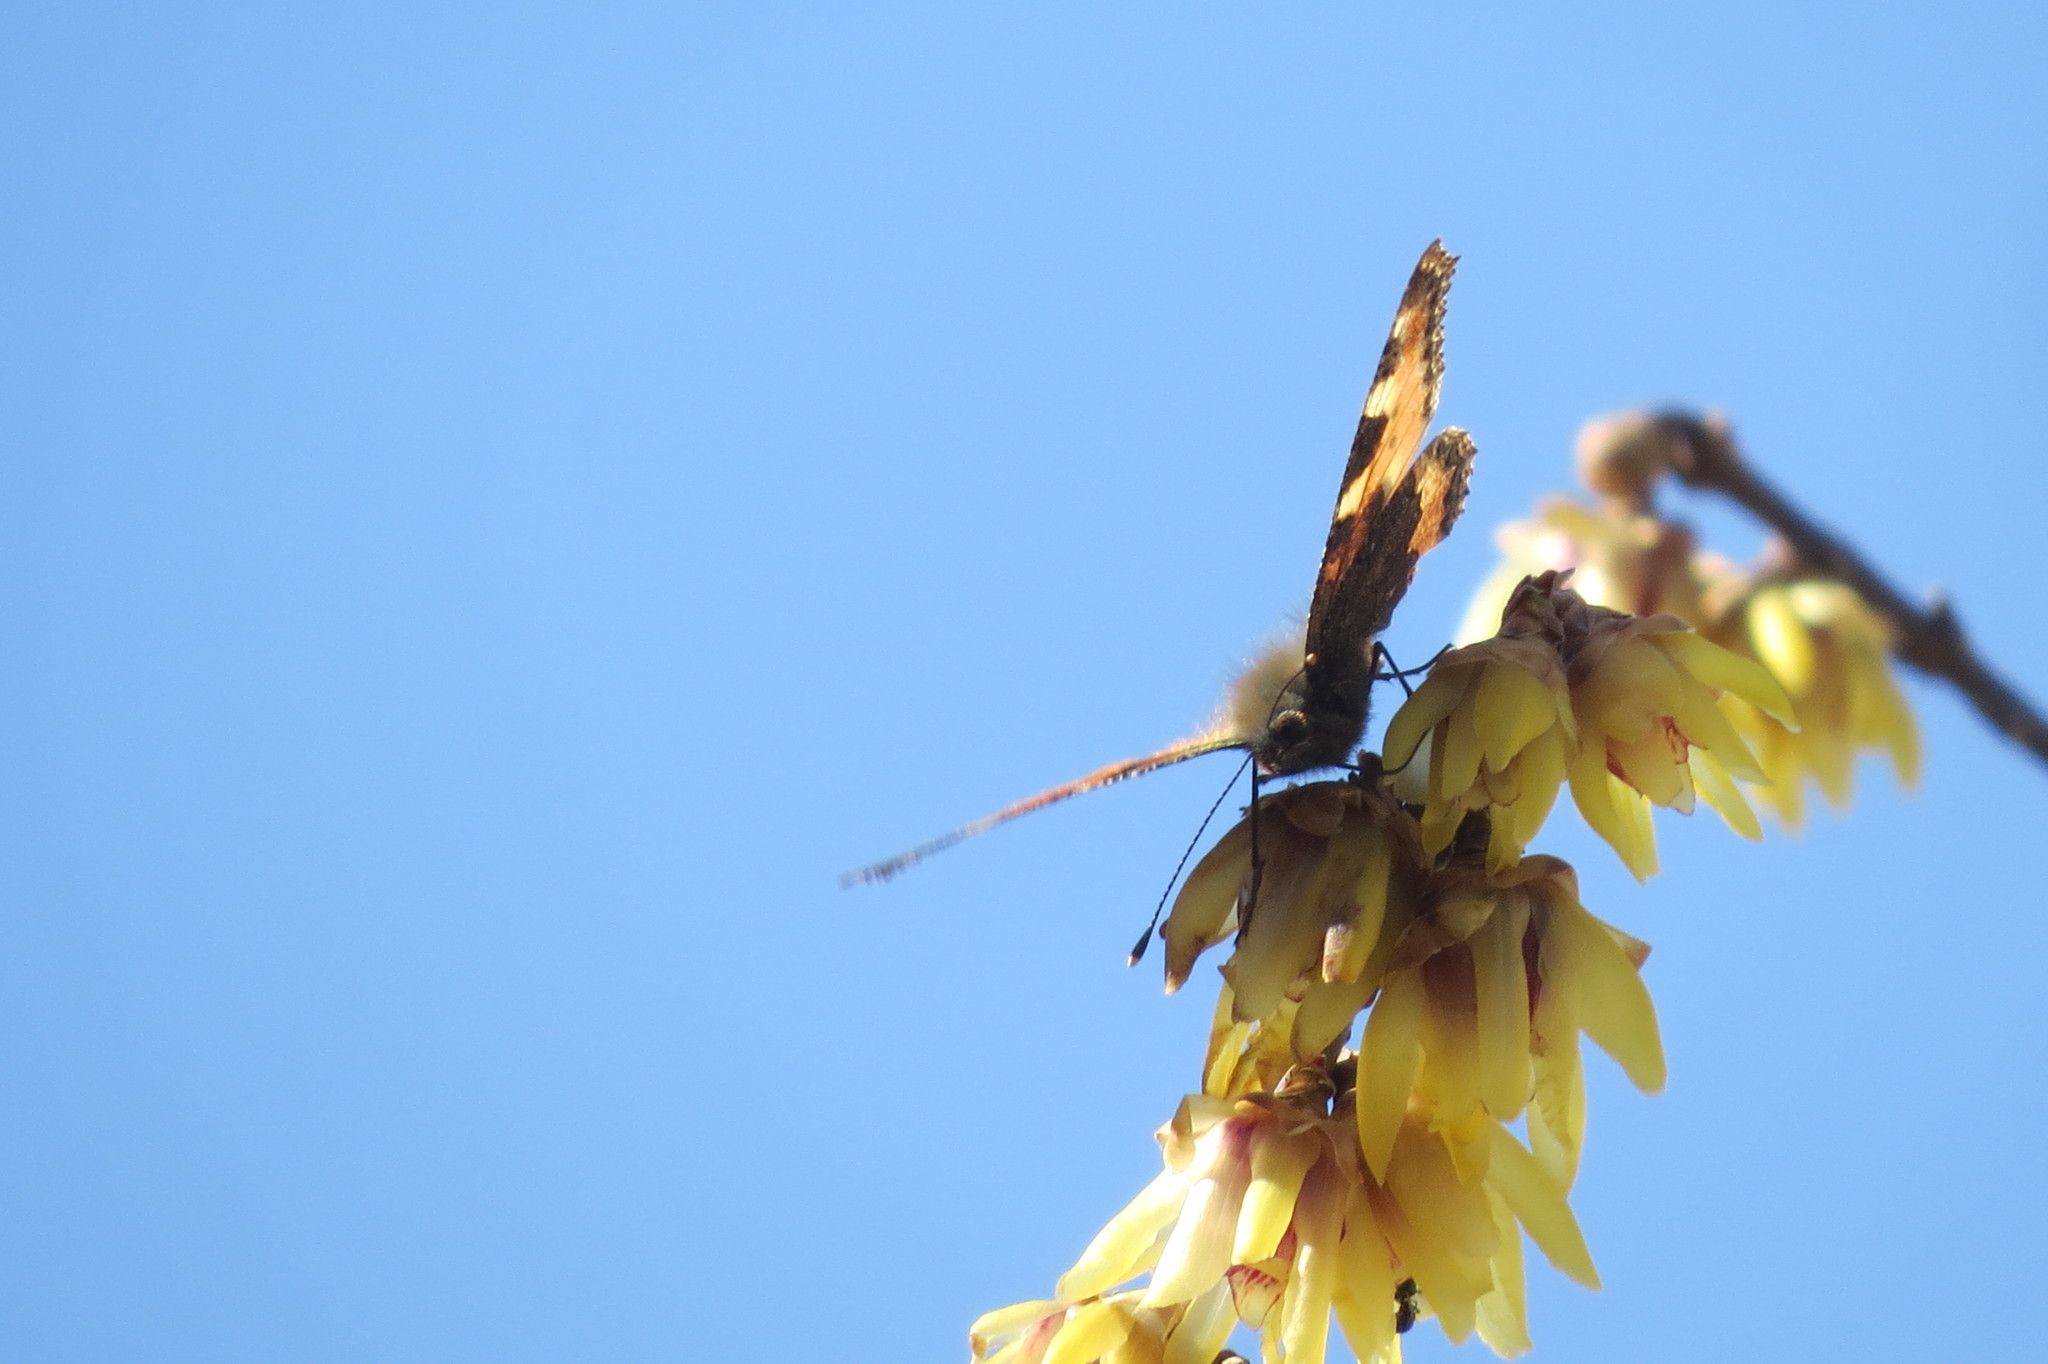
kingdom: Animalia
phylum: Arthropoda
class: Insecta
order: Lepidoptera
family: Nymphalidae
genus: Aglais
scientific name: Aglais urticae
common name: Small tortoiseshell
